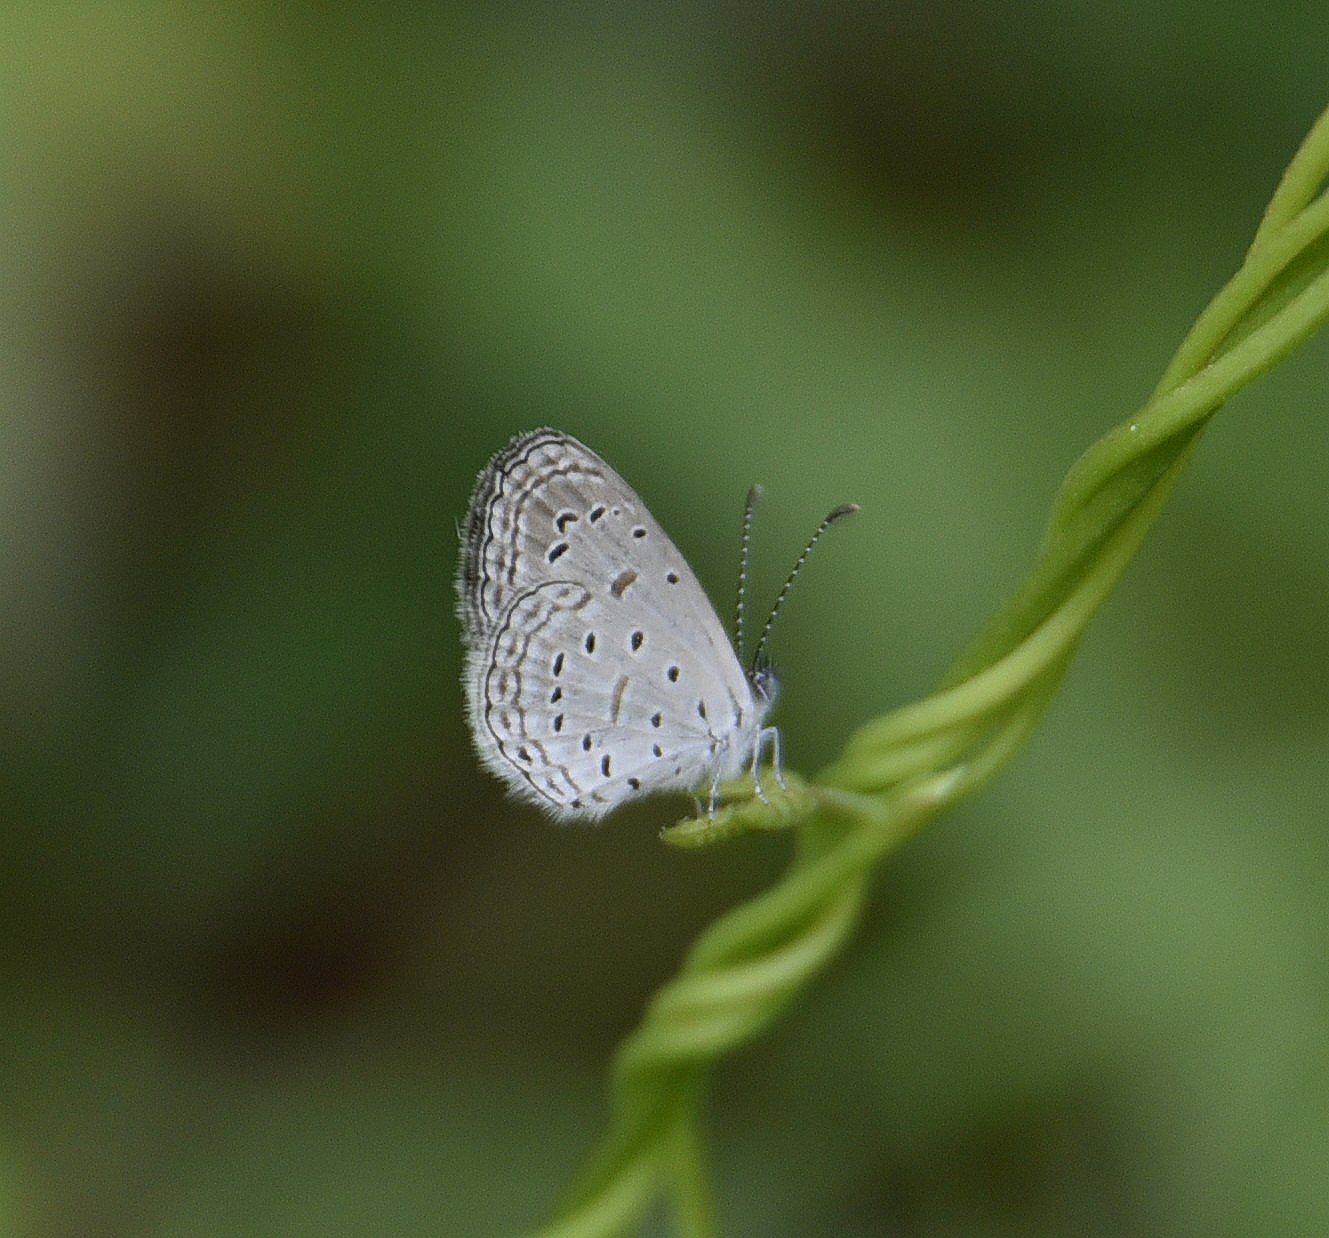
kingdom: Animalia
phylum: Arthropoda
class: Insecta
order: Lepidoptera
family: Lycaenidae
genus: Zizula
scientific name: Zizula hylax
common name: Gaika blue
